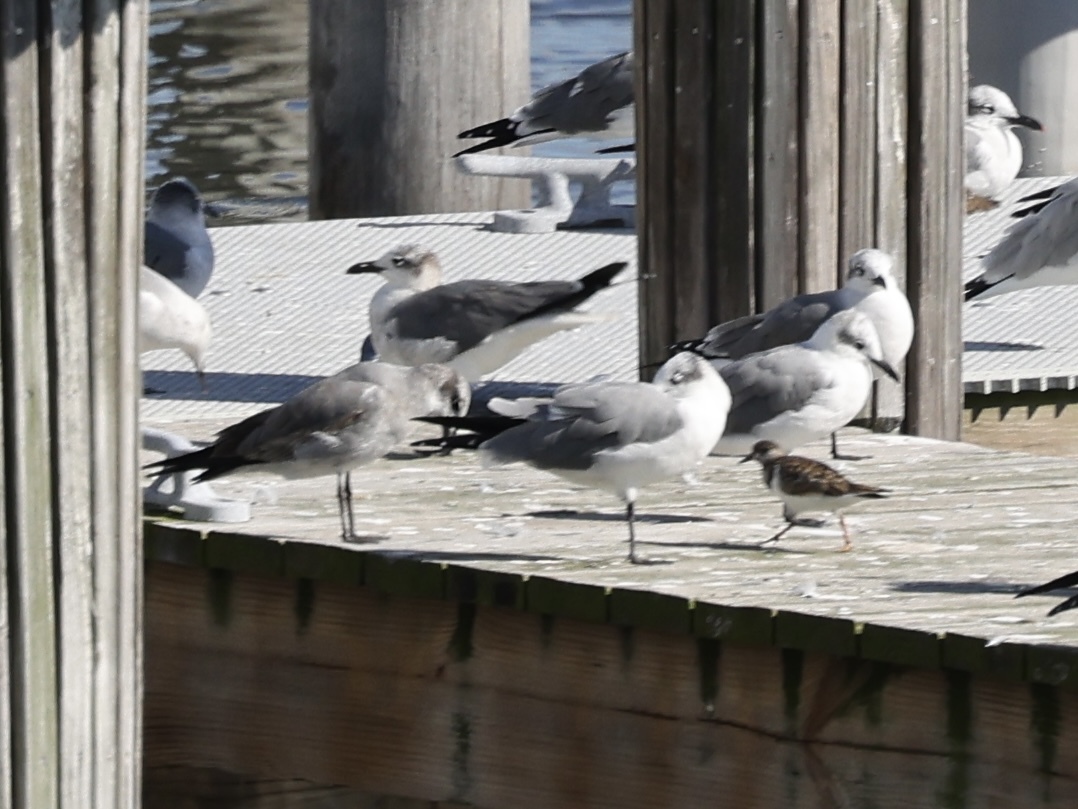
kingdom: Animalia
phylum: Chordata
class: Aves
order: Charadriiformes
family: Laridae
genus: Leucophaeus
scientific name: Leucophaeus atricilla
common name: Laughing gull
